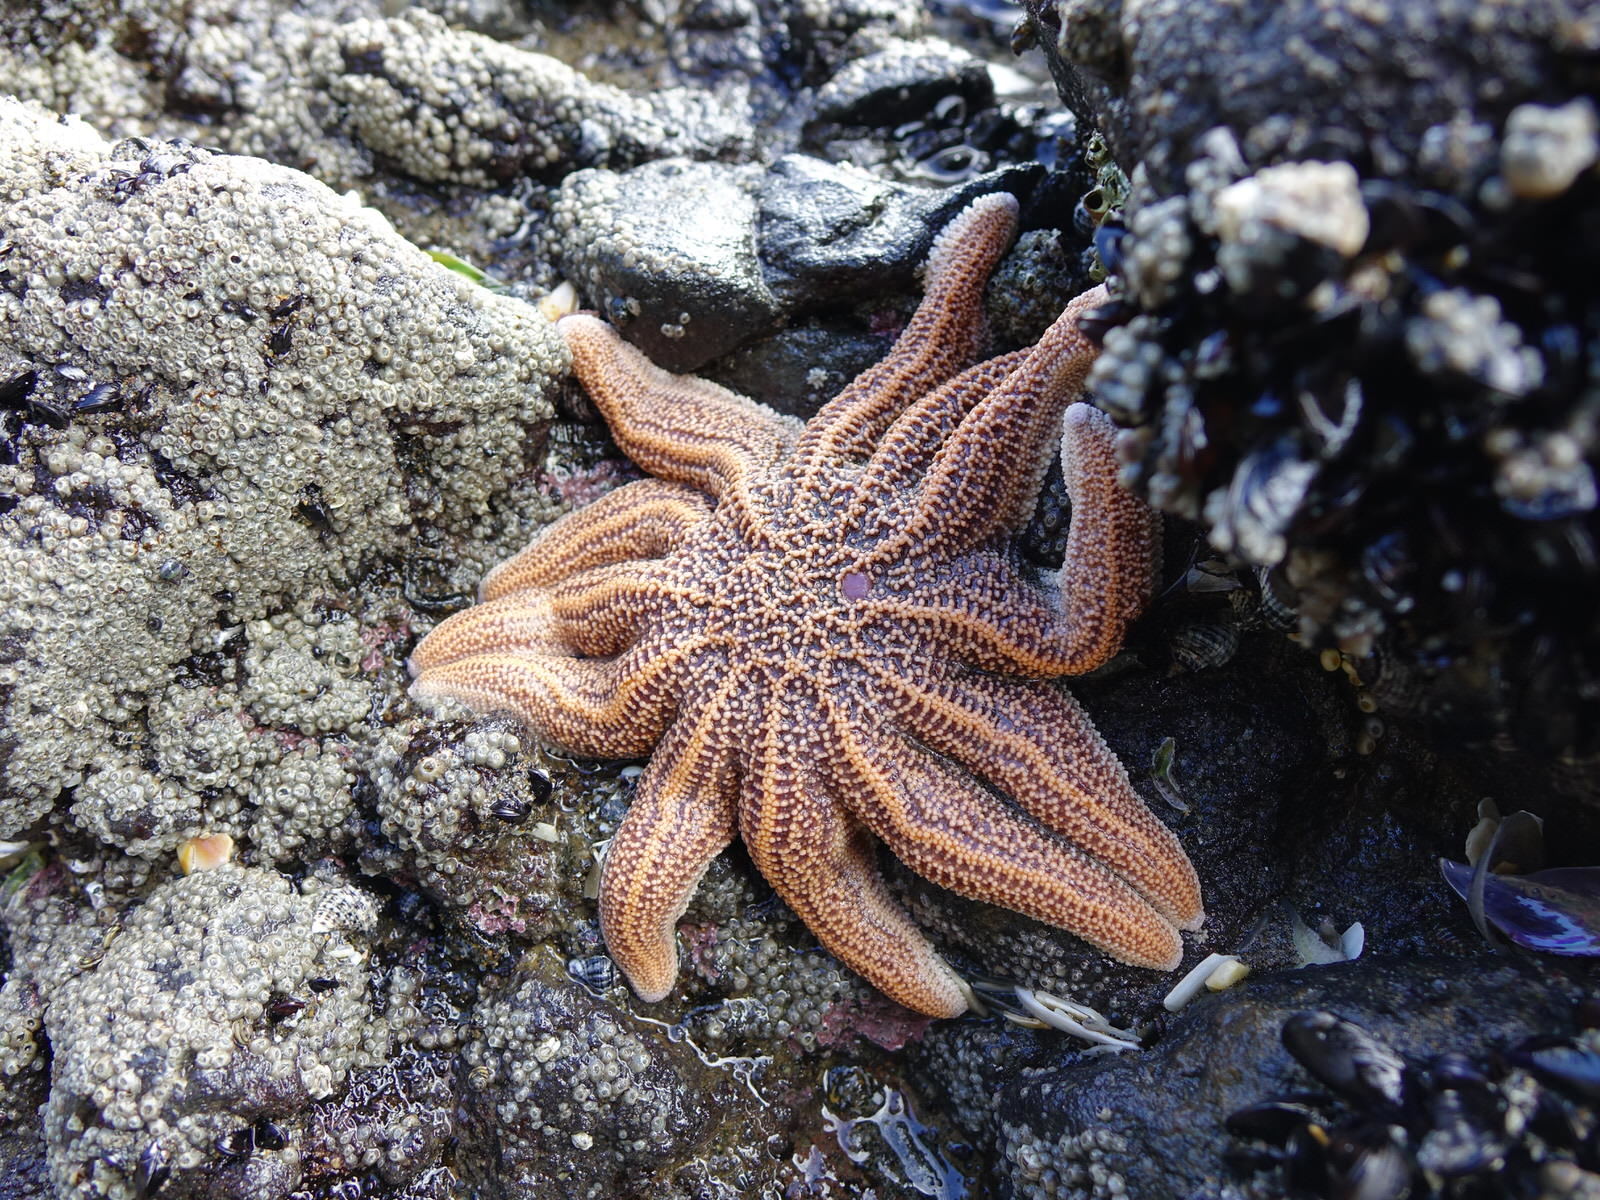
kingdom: Animalia
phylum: Echinodermata
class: Asteroidea
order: Forcipulatida
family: Stichasteridae
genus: Stichaster
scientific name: Stichaster australis
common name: Reef starfish
